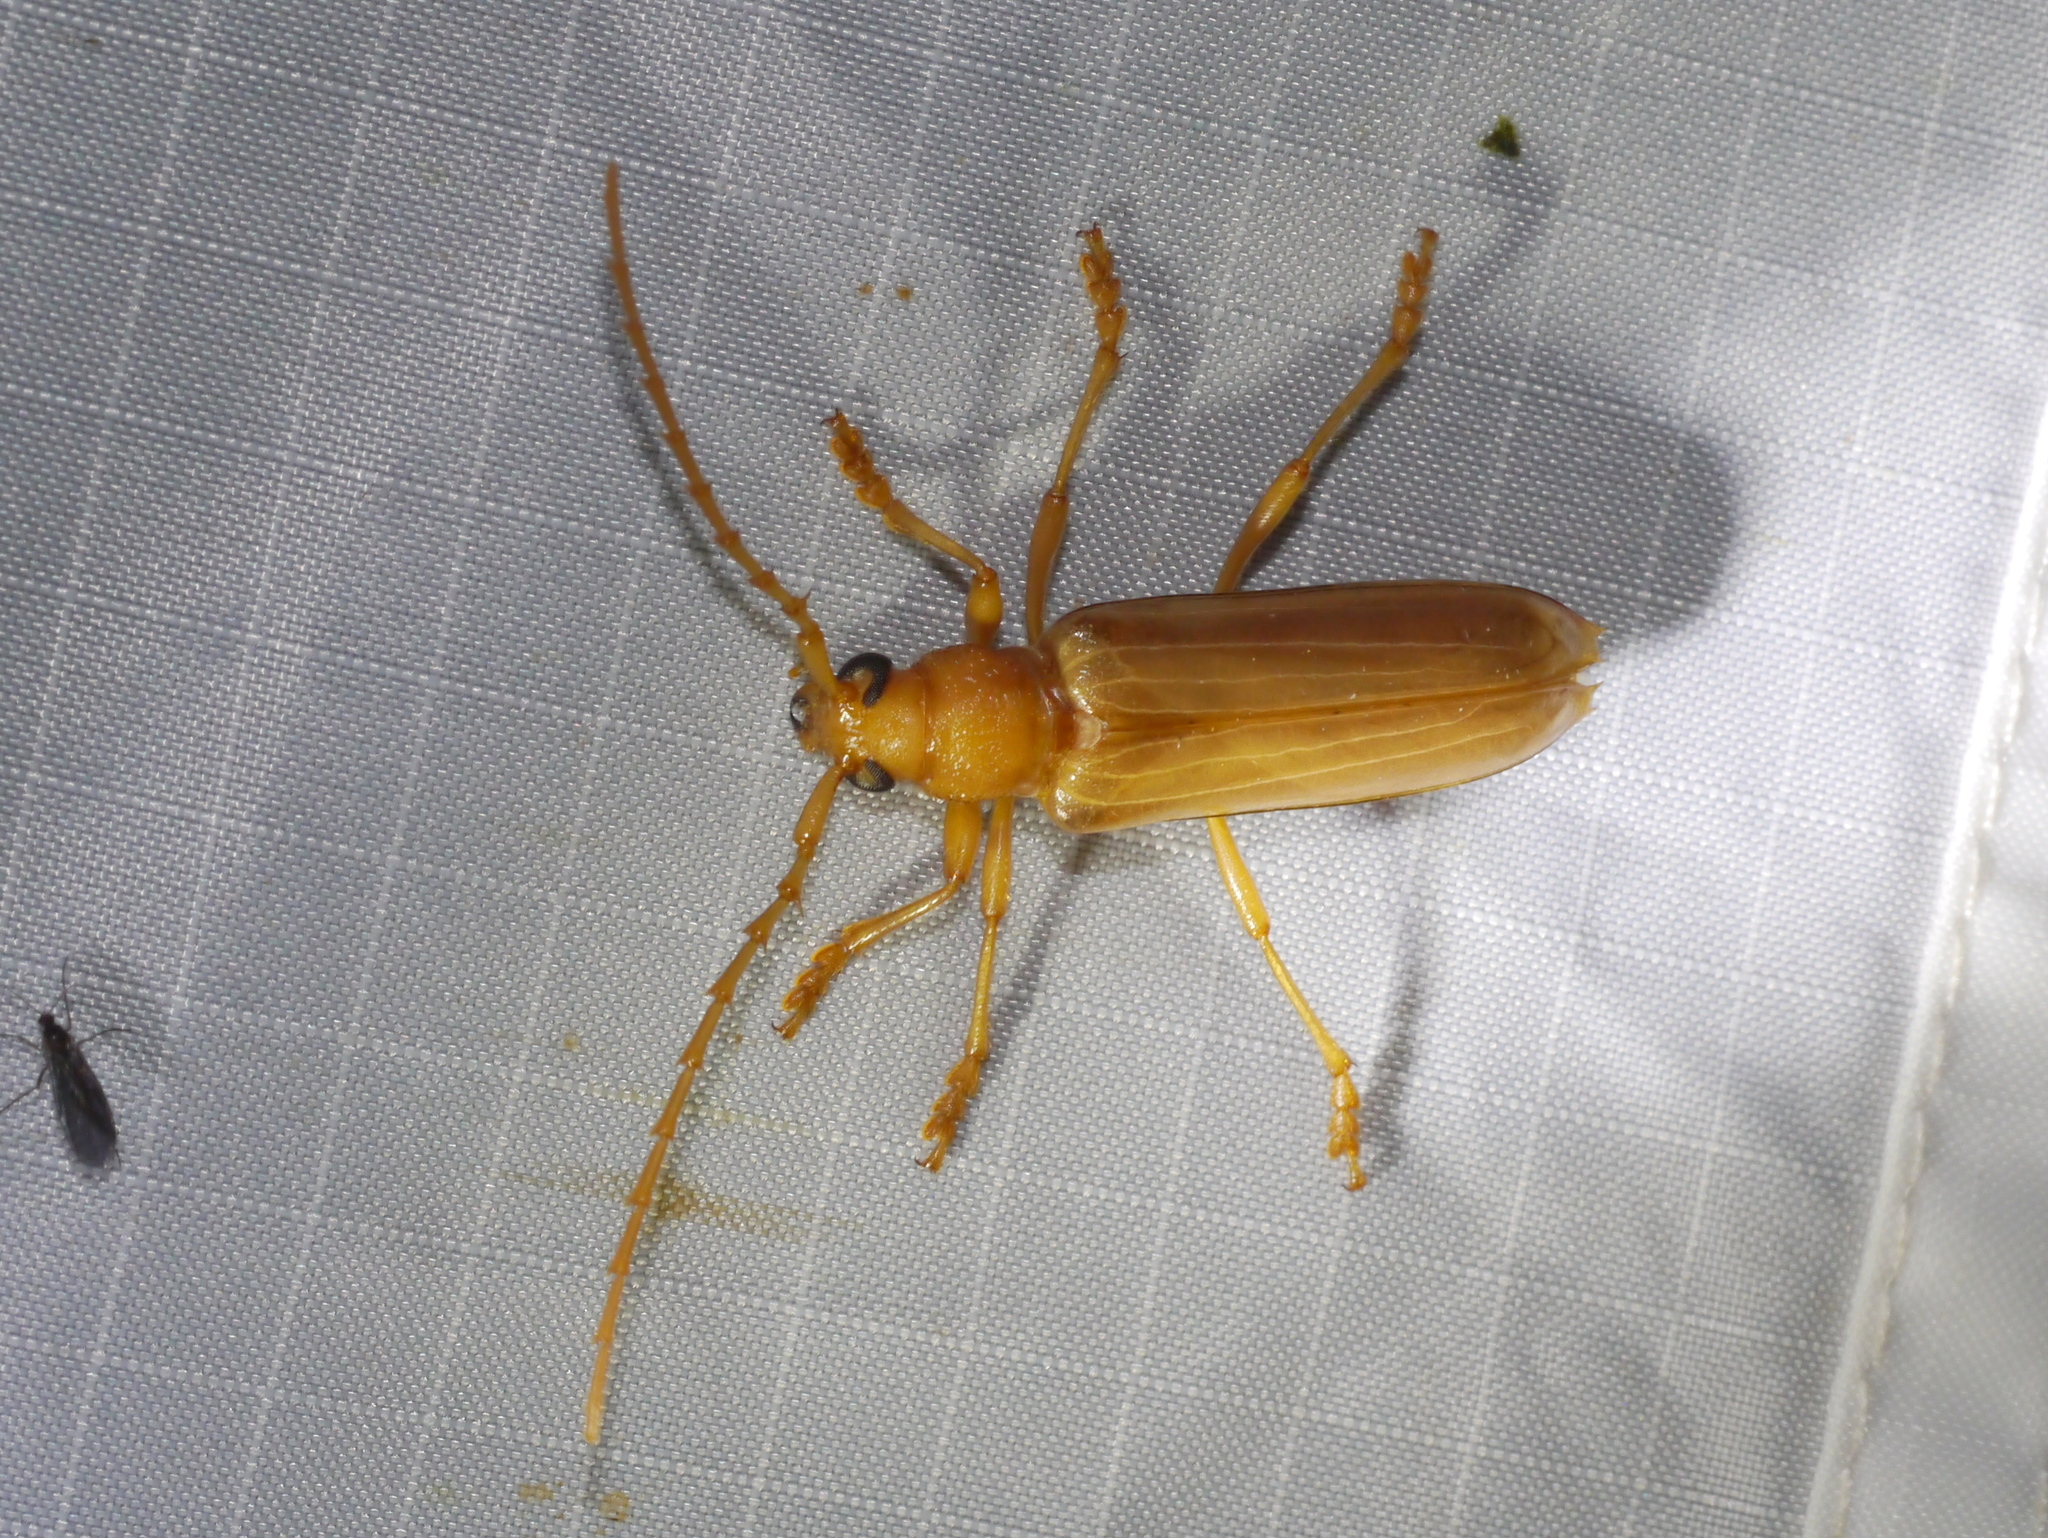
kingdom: Animalia
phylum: Arthropoda
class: Insecta
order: Coleoptera
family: Cerambycidae
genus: Atylostagma
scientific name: Atylostagma polita
